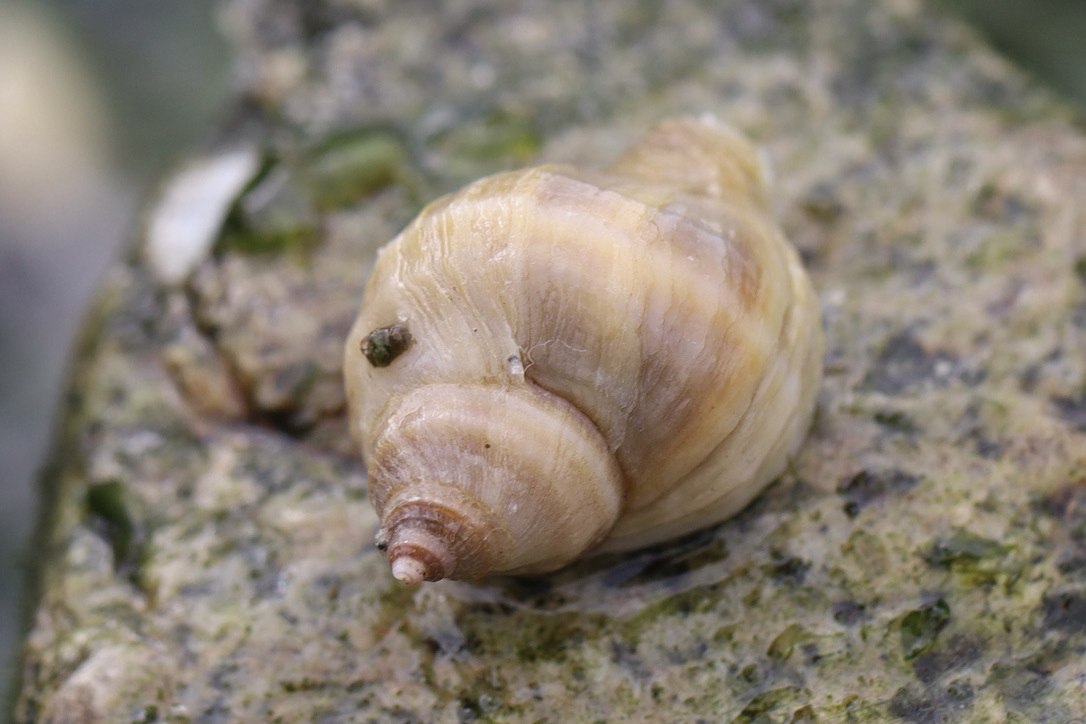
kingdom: Animalia
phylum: Mollusca
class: Gastropoda
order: Neogastropoda
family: Muricidae
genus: Nucella
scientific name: Nucella lamellosa
